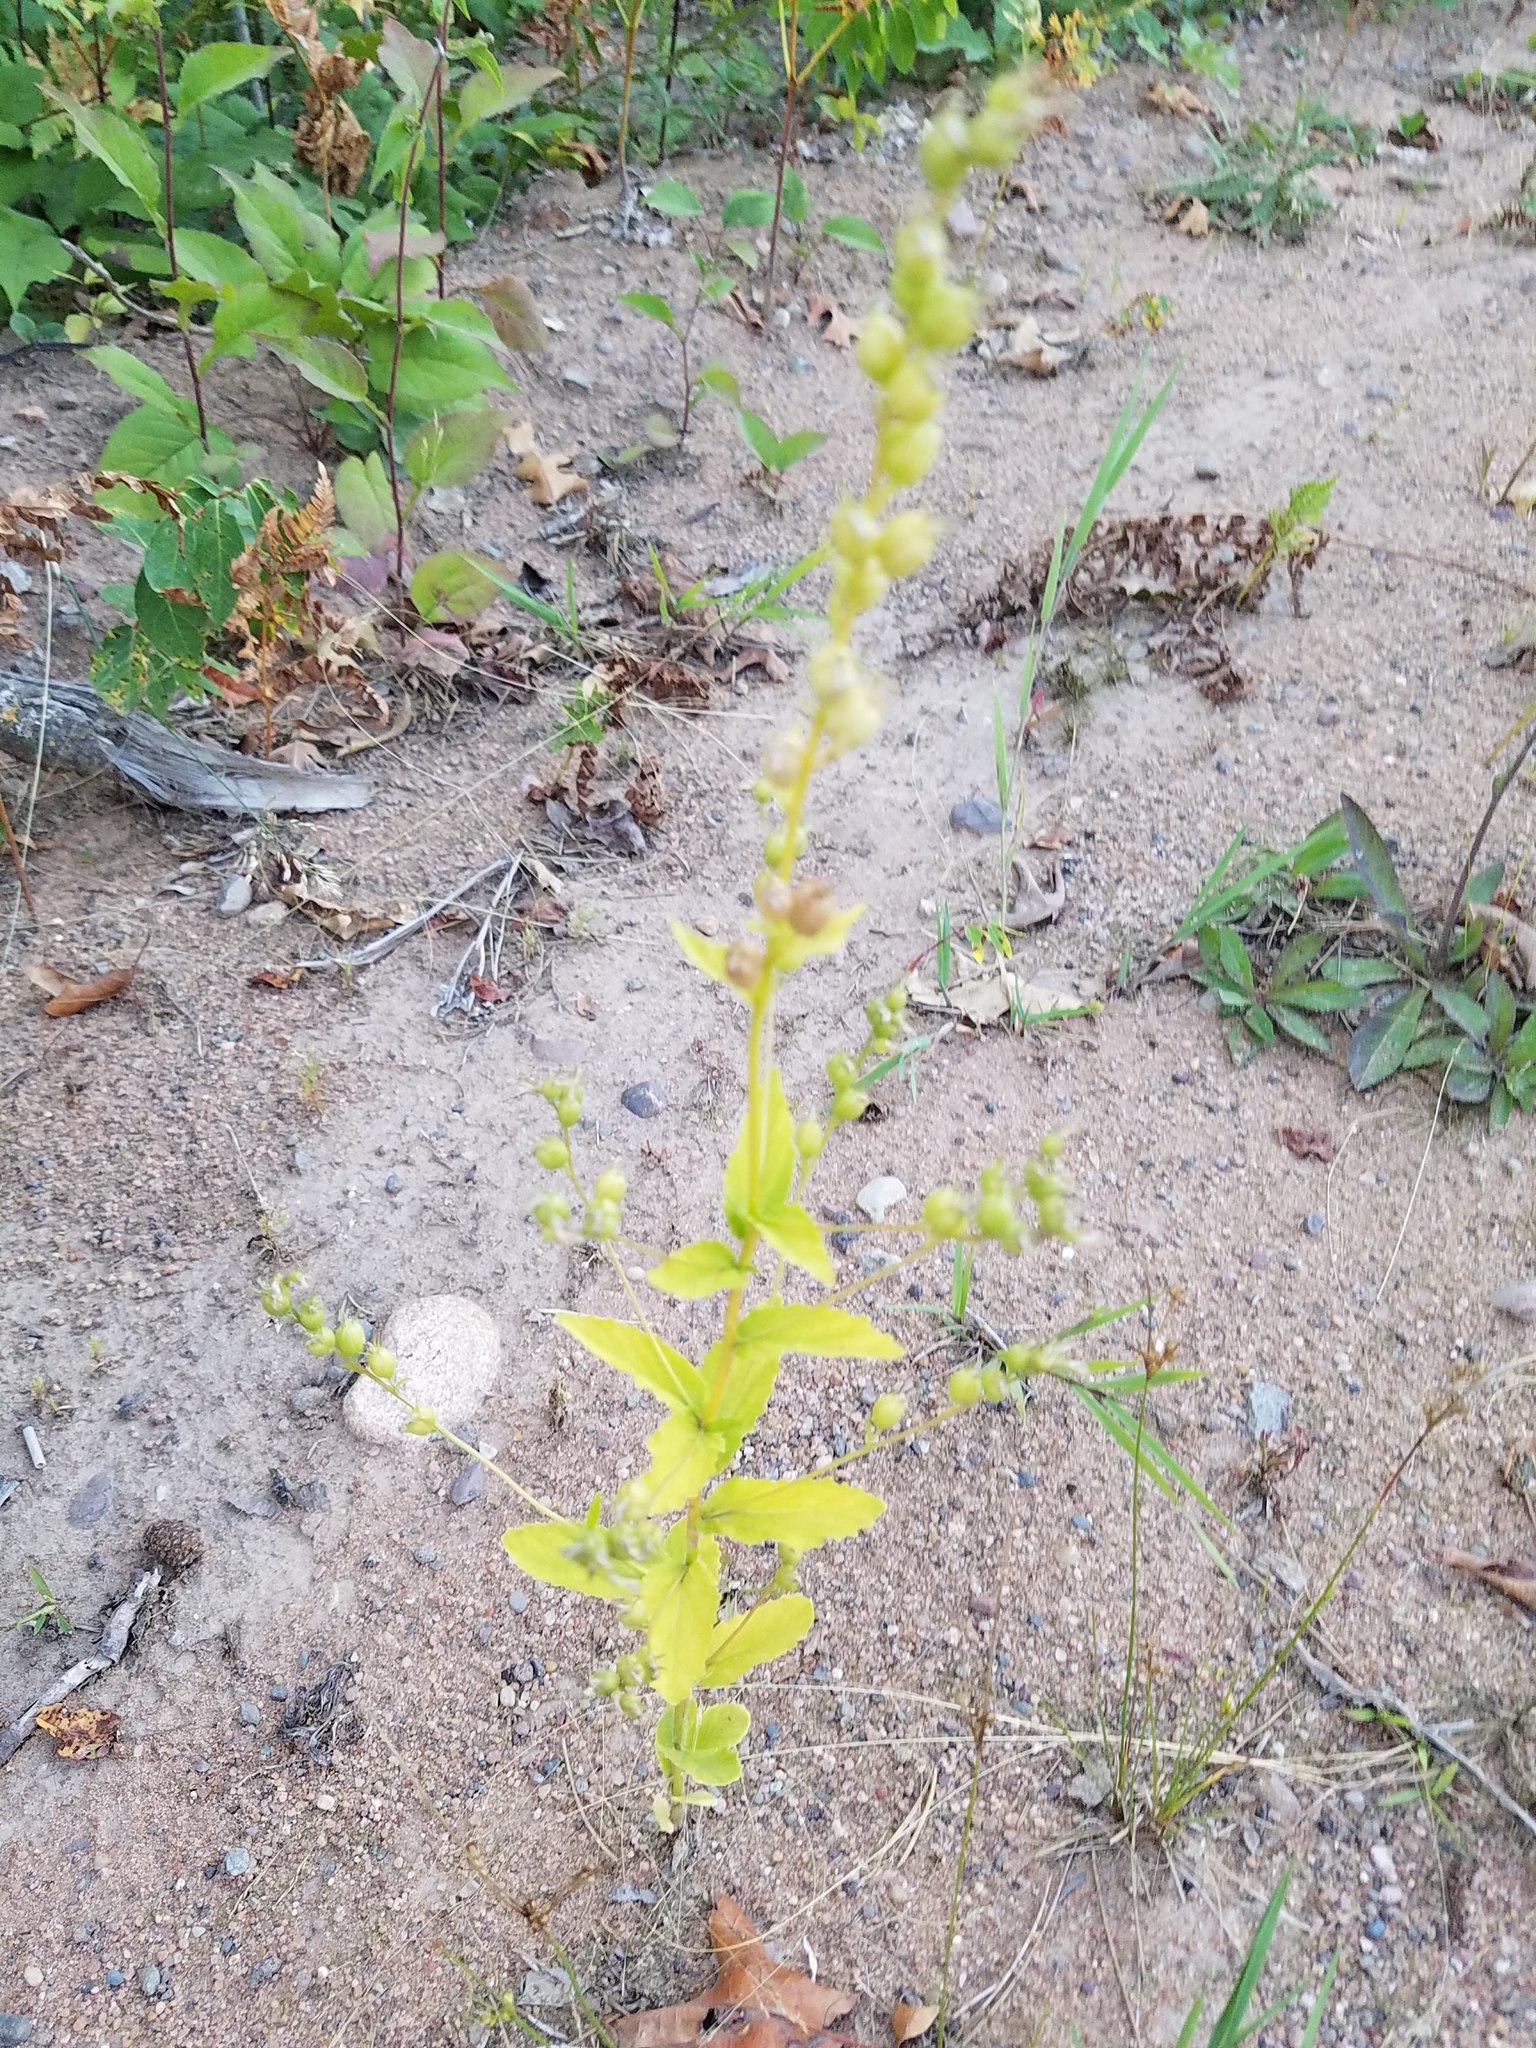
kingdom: Plantae
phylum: Tracheophyta
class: Magnoliopsida
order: Asterales
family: Campanulaceae
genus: Lobelia
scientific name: Lobelia inflata
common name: Indian tobacco
